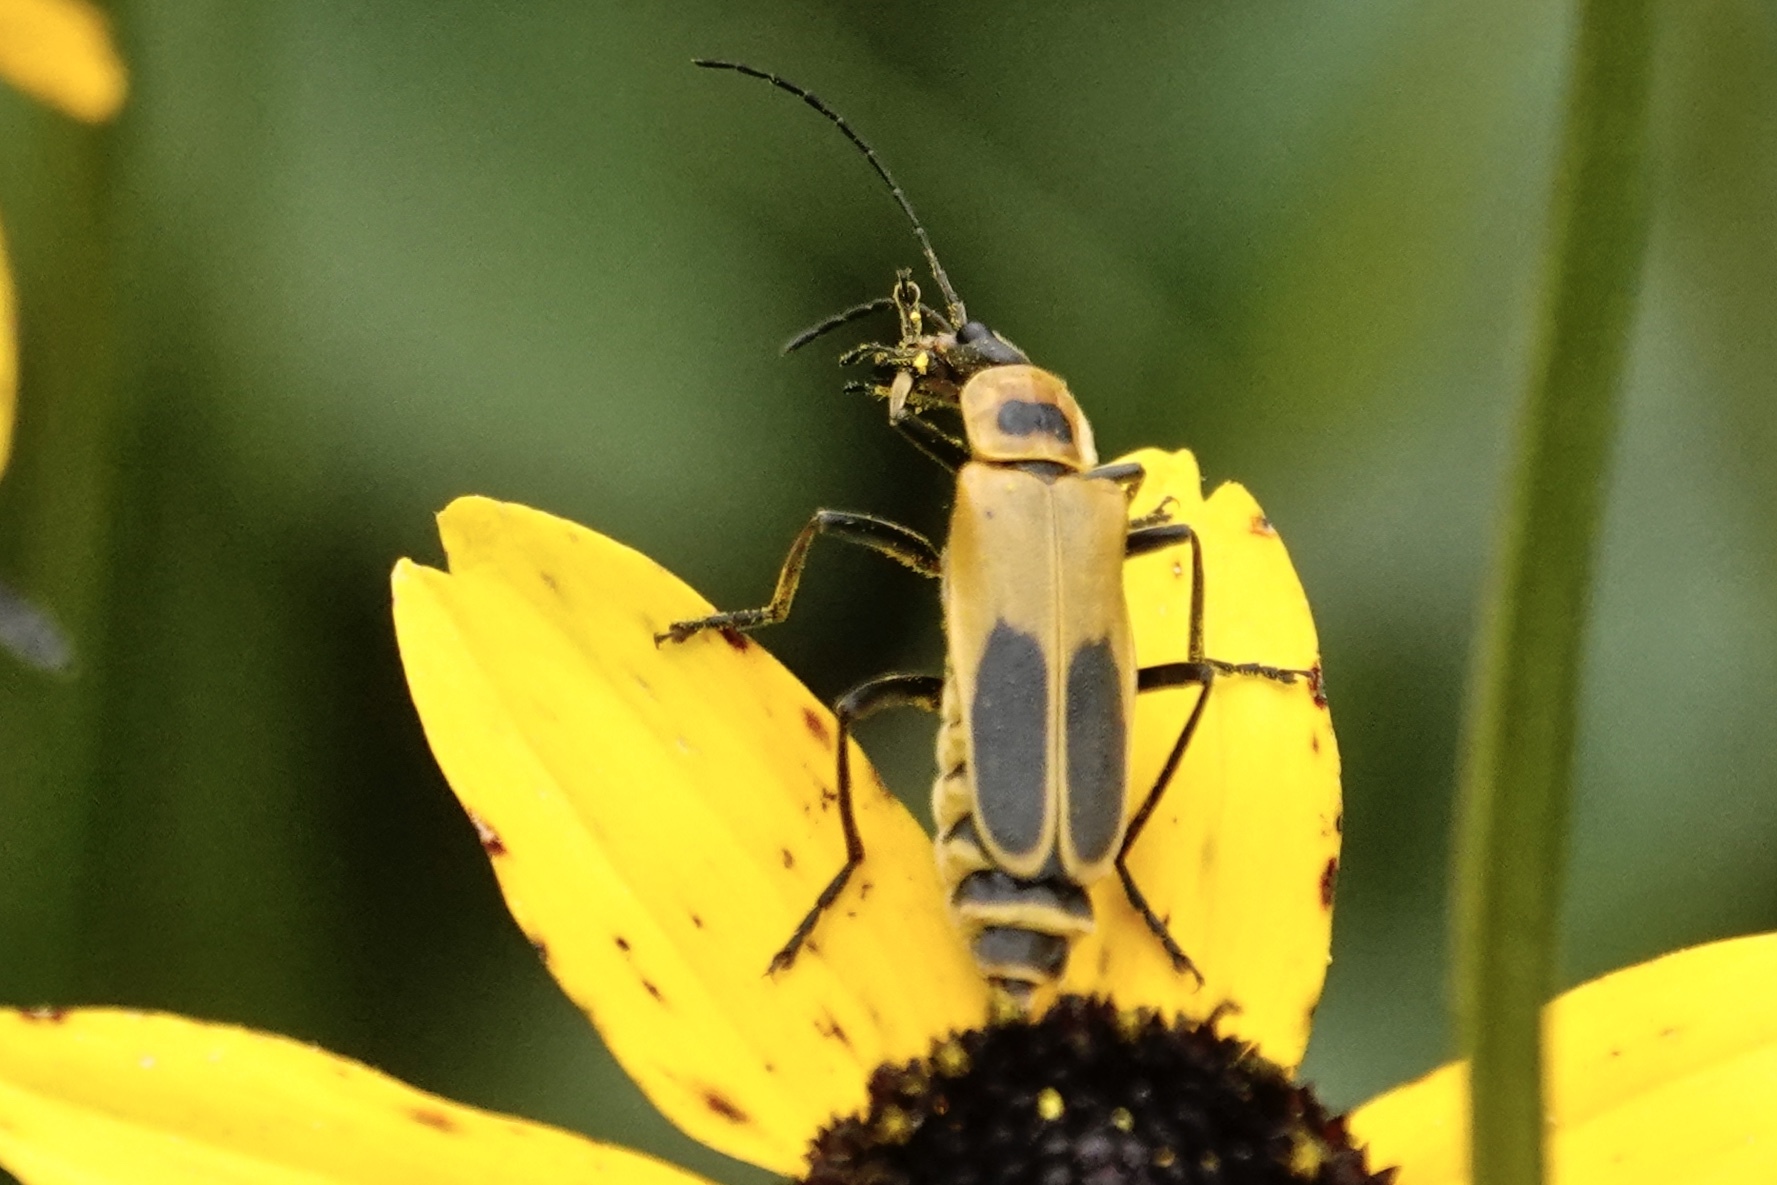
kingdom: Animalia
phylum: Arthropoda
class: Insecta
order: Coleoptera
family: Cantharidae
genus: Chauliognathus
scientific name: Chauliognathus pensylvanicus
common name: Goldenrod soldier beetle
